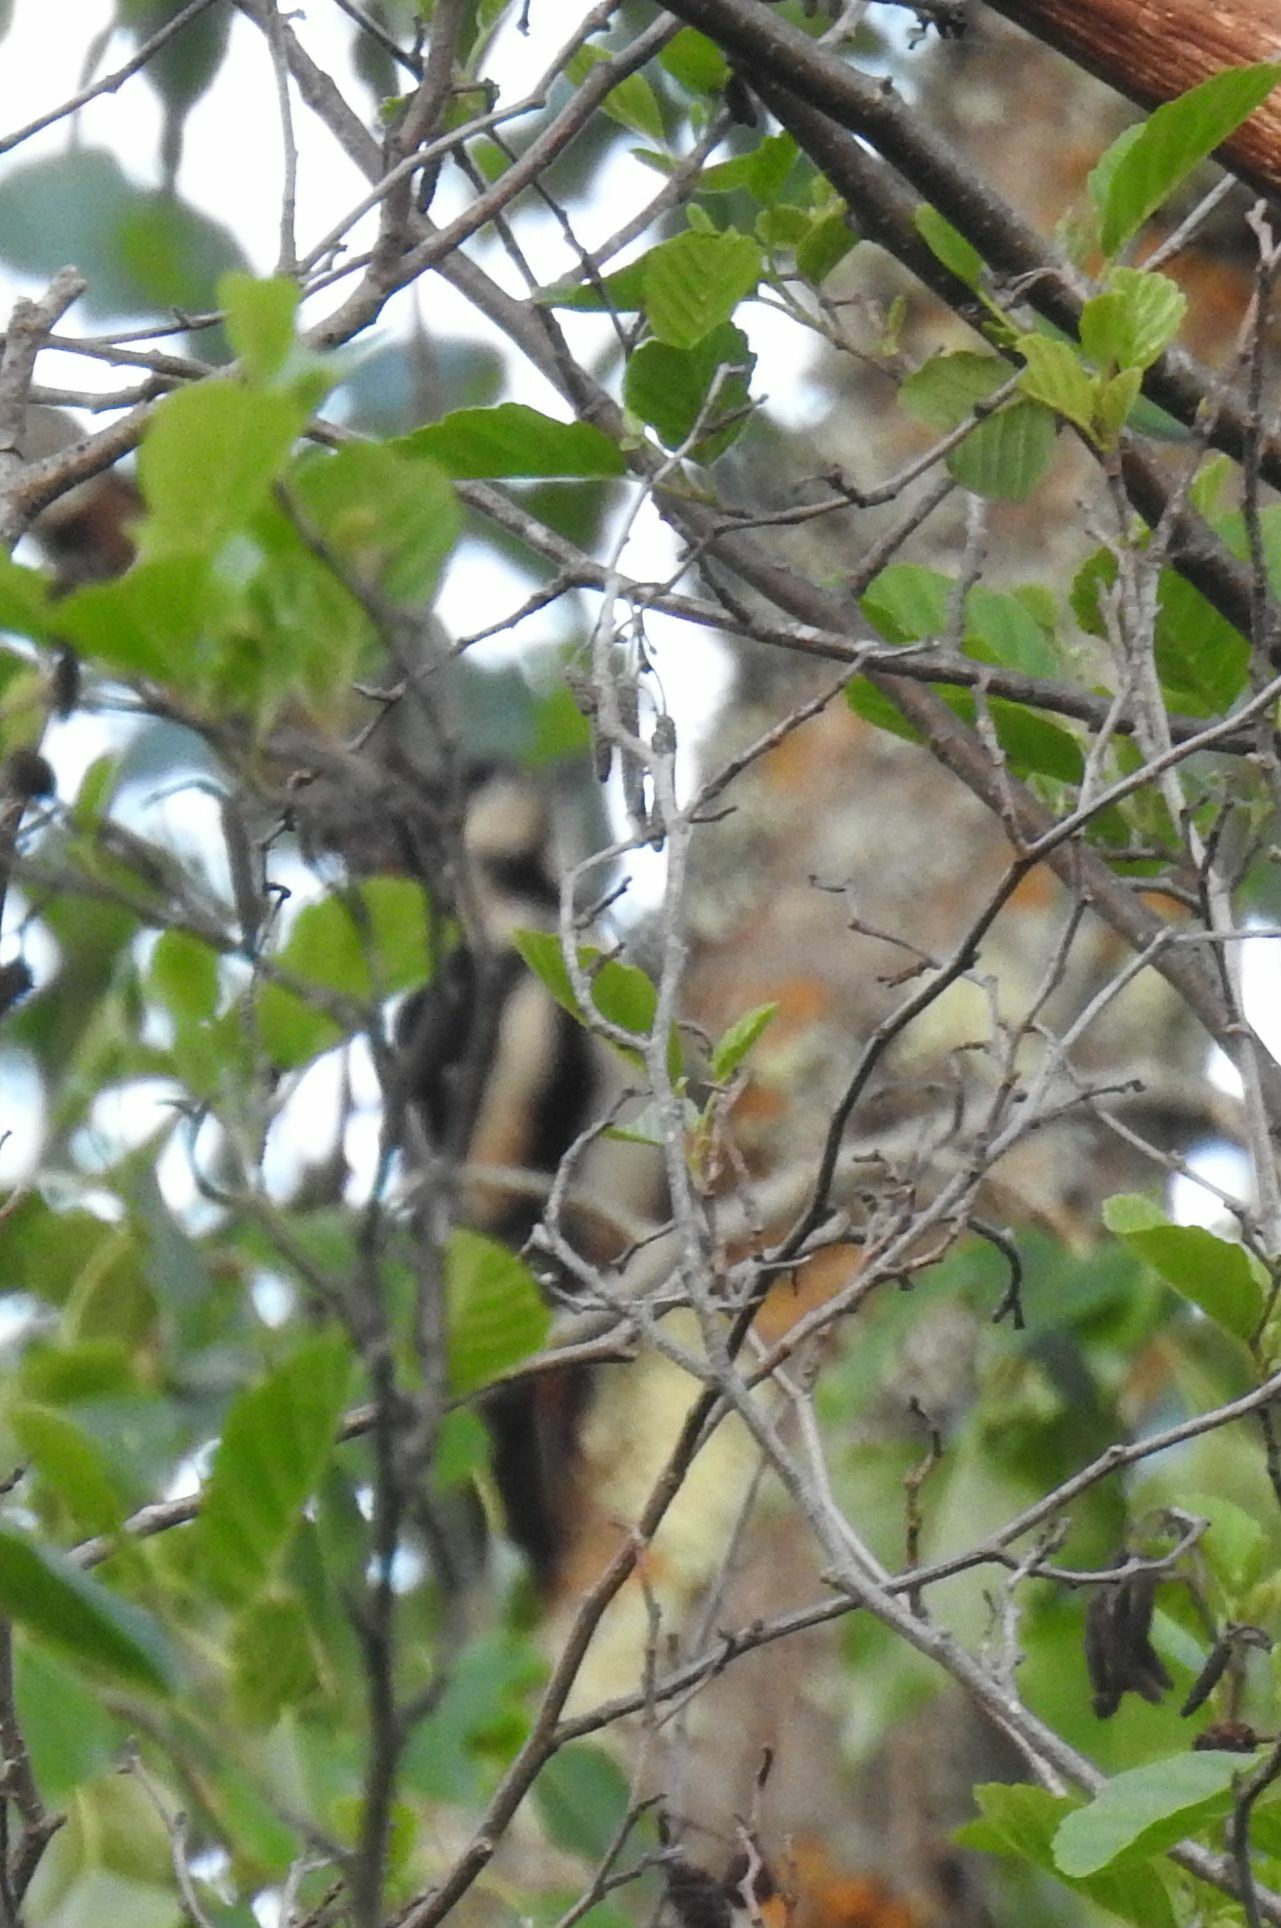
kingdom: Animalia
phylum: Chordata
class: Aves
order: Piciformes
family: Picidae
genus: Dendrocopos
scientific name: Dendrocopos major
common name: Great spotted woodpecker
